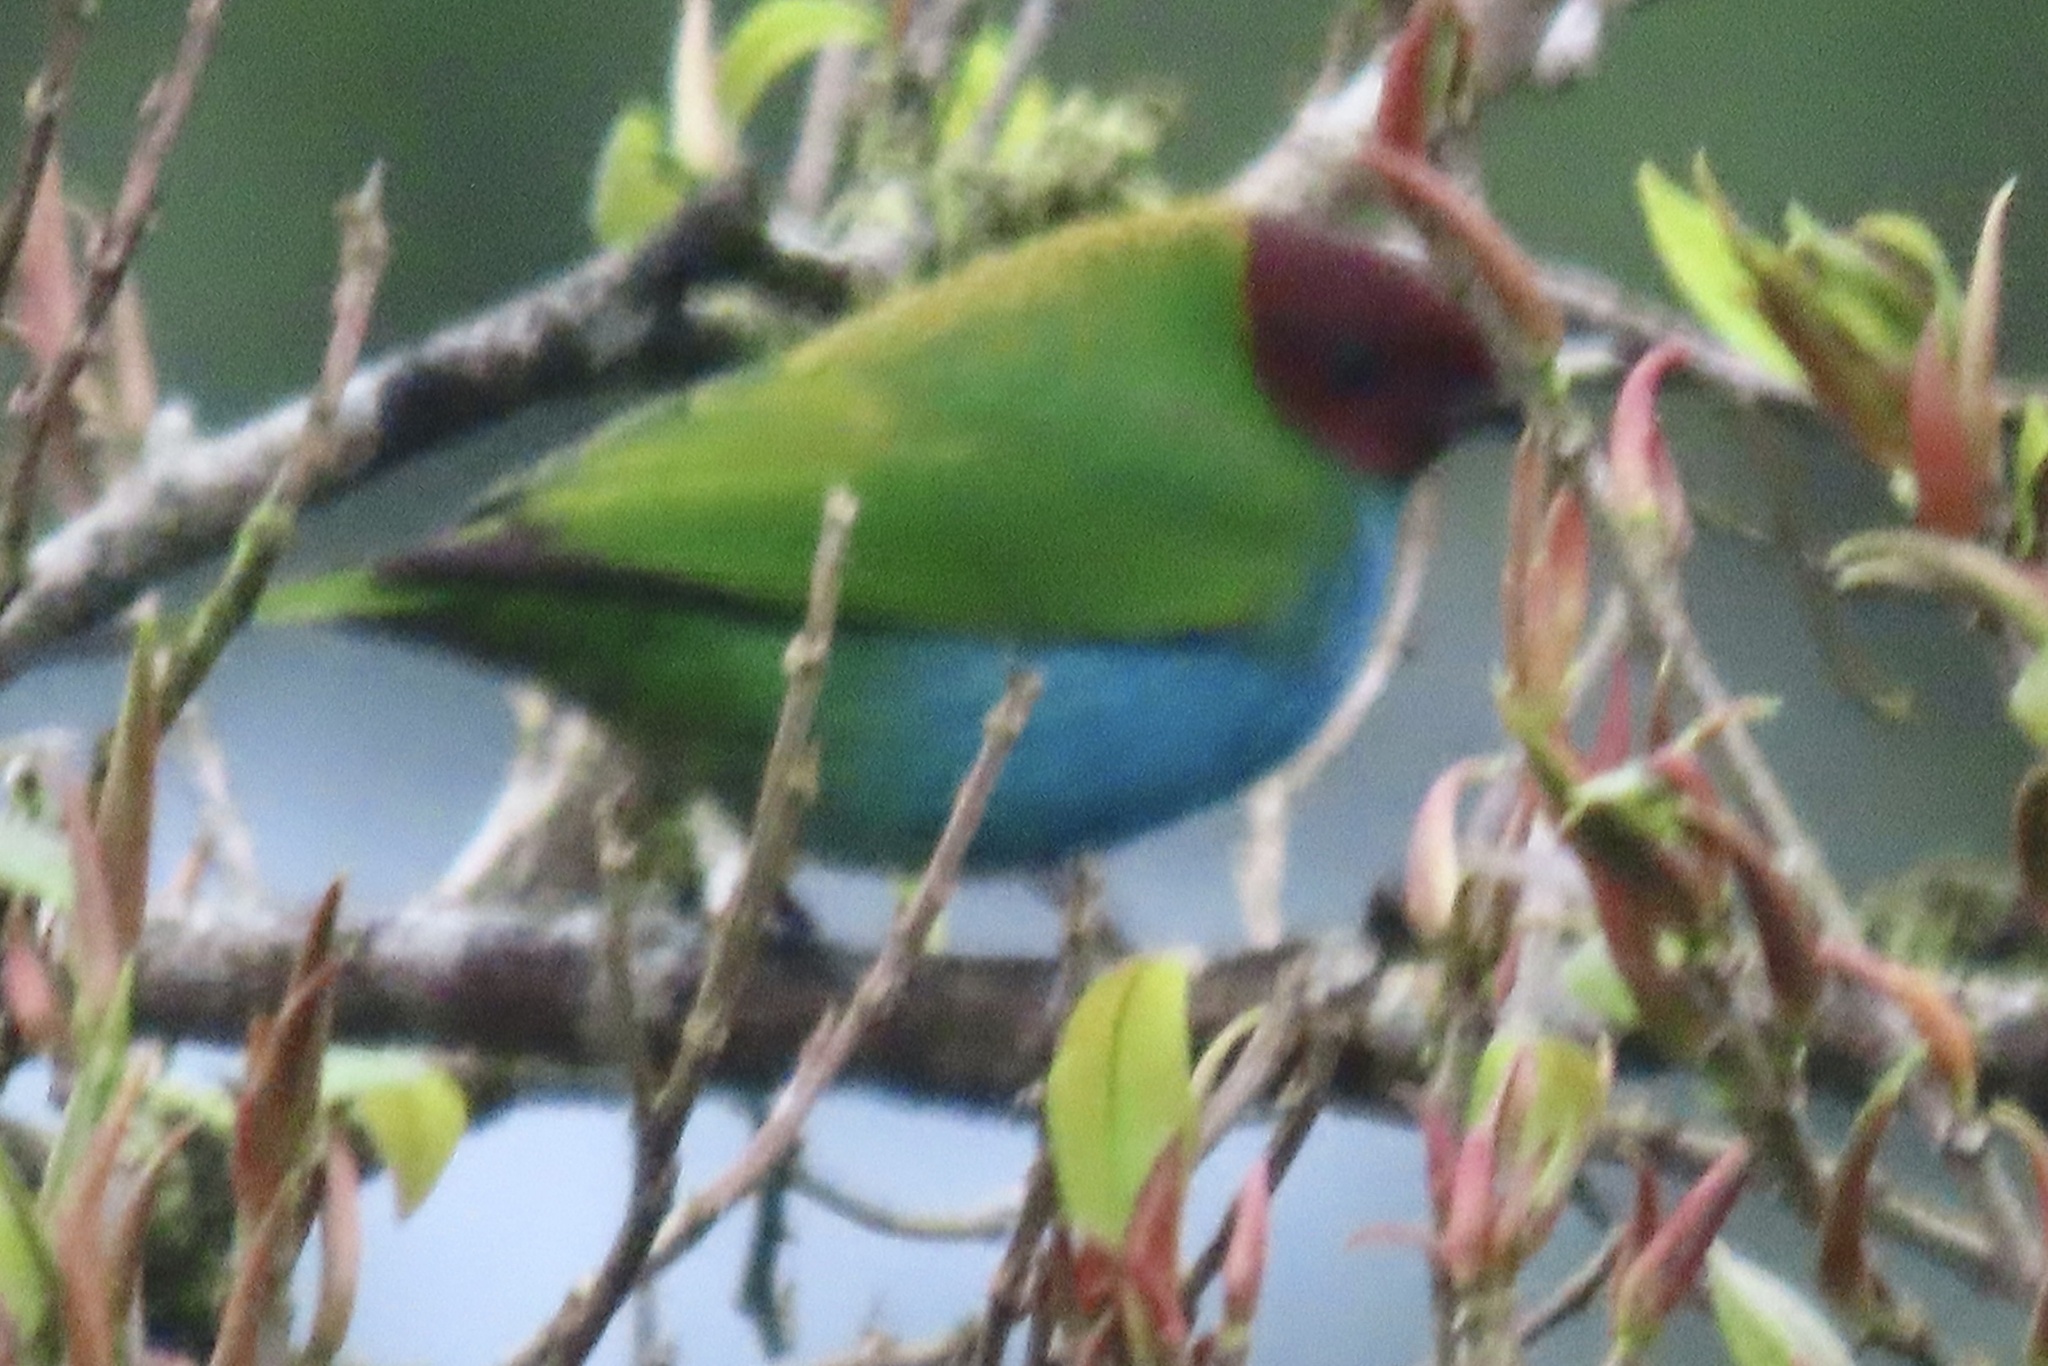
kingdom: Animalia
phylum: Chordata
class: Aves
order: Passeriformes
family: Thraupidae
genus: Tangara
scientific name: Tangara gyrola
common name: Bay-headed tanager
